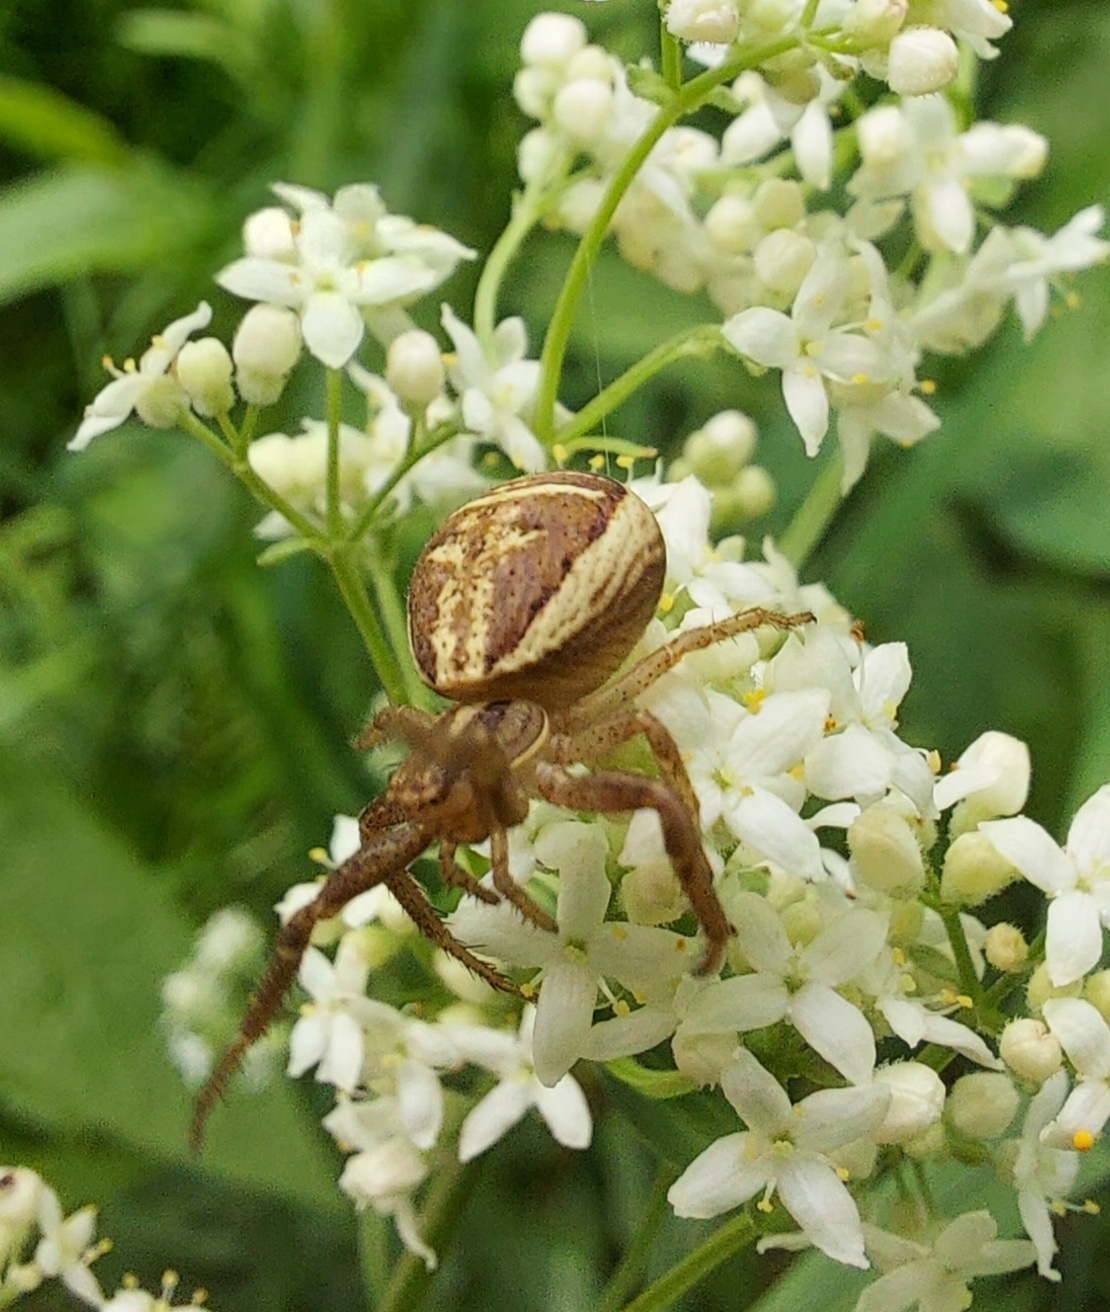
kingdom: Animalia
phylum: Arthropoda
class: Arachnida
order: Araneae
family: Thomisidae
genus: Xysticus
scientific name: Xysticus ulmi
